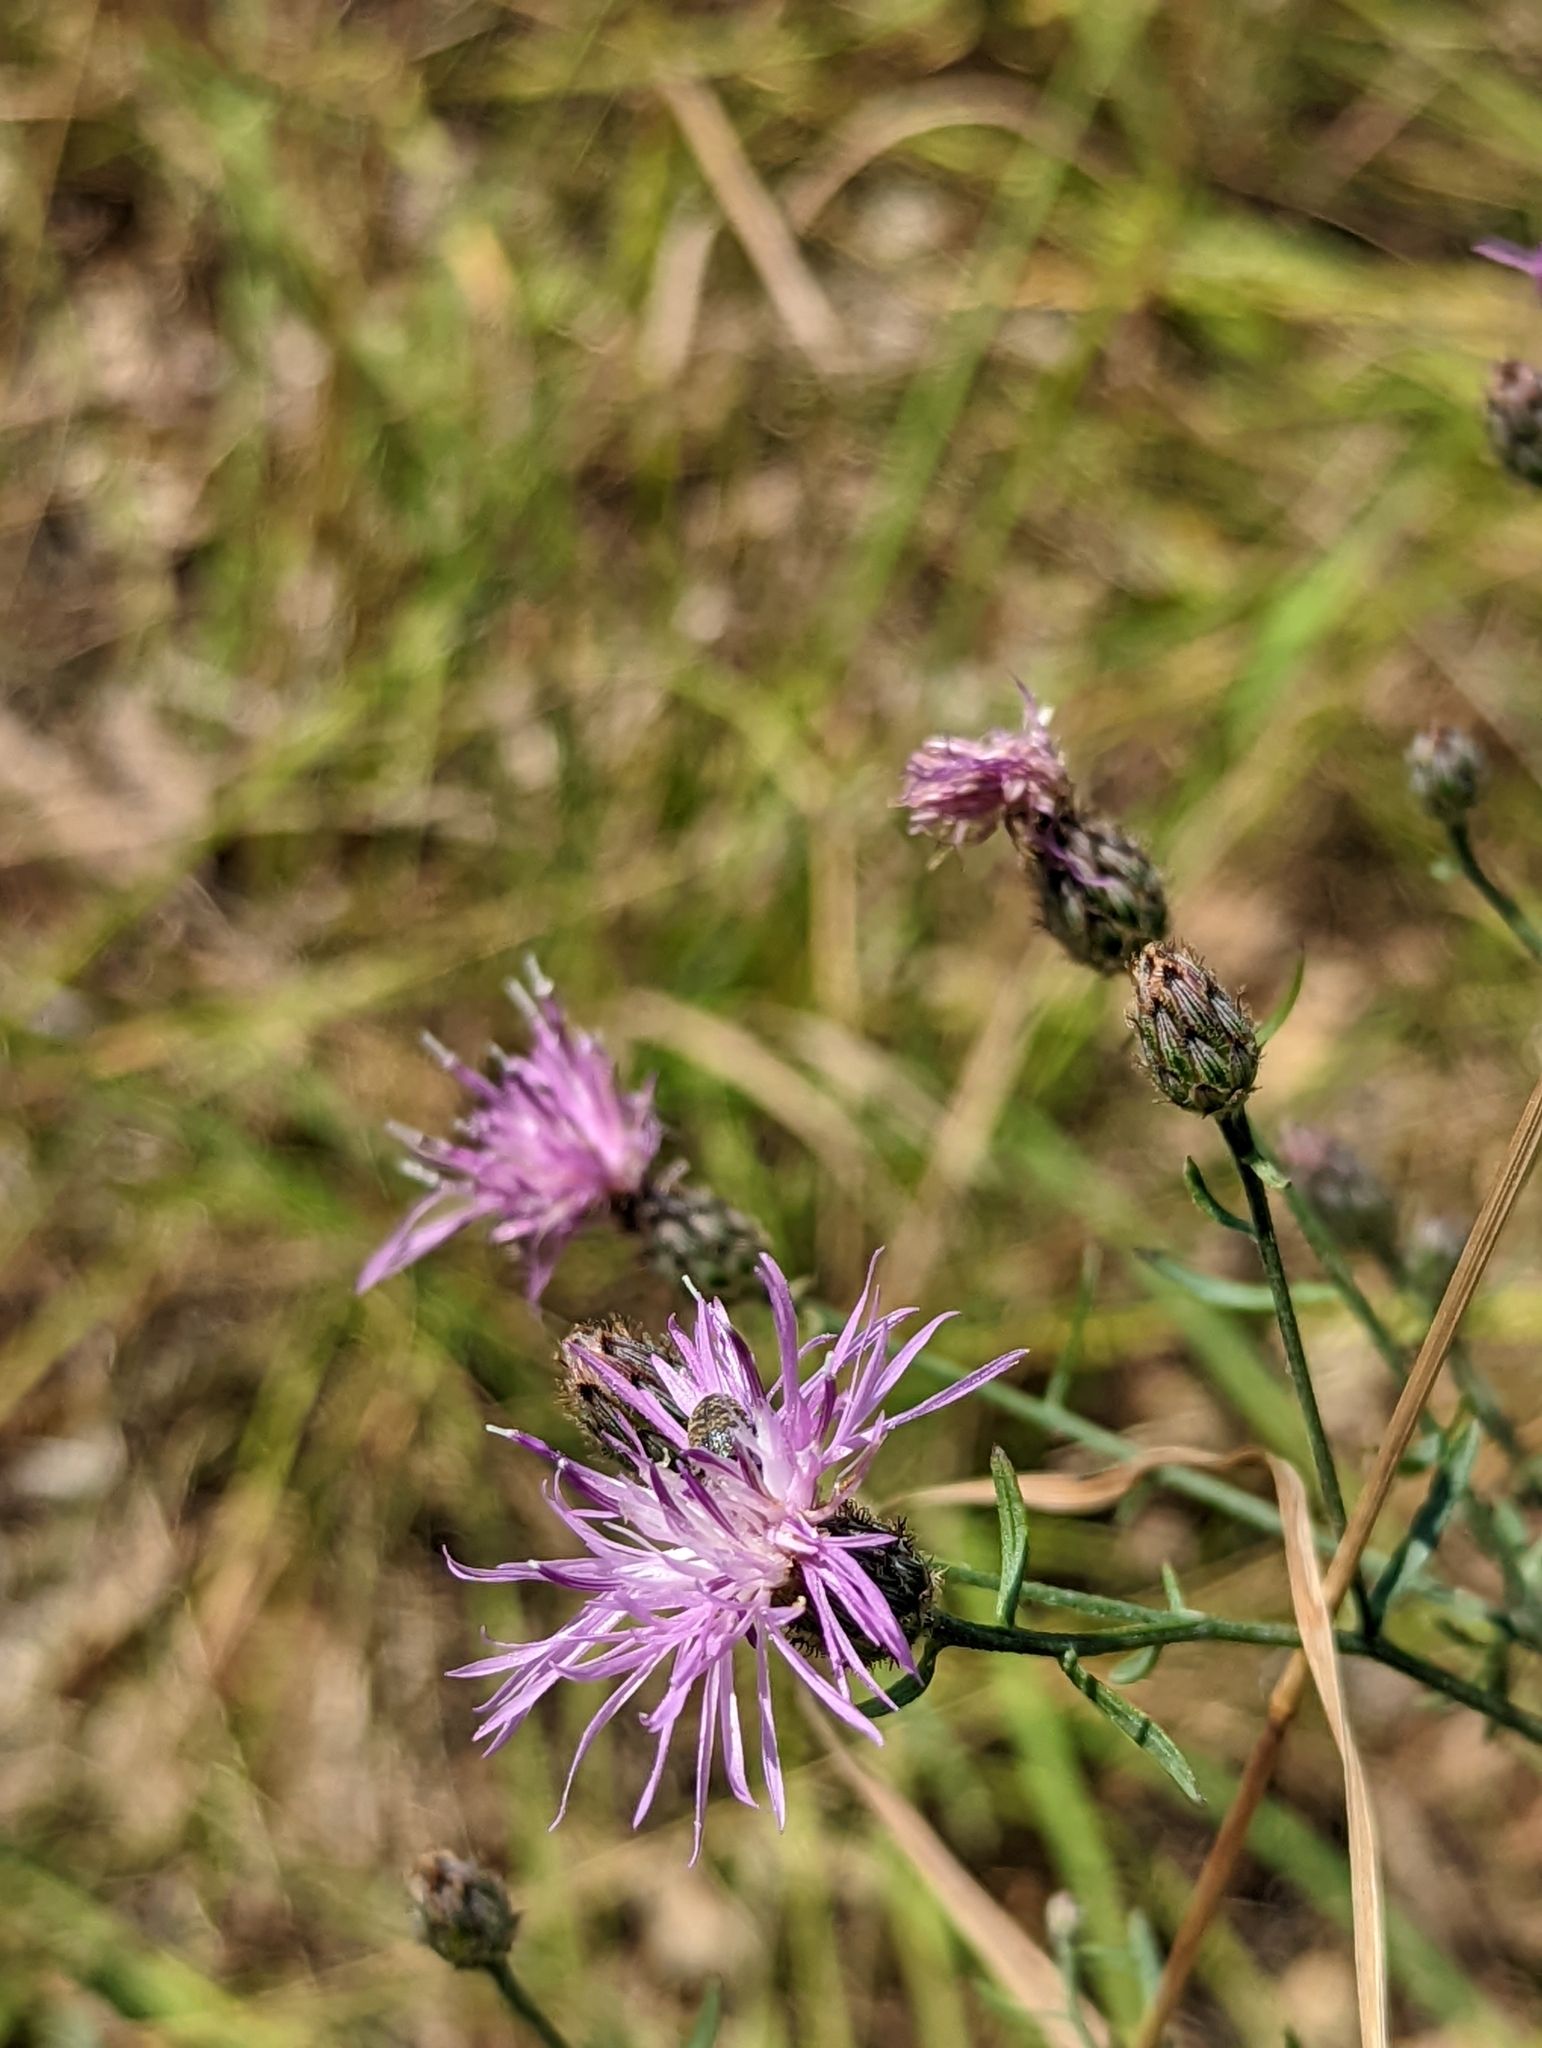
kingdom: Plantae
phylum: Tracheophyta
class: Magnoliopsida
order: Asterales
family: Asteraceae
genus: Centaurea
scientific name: Centaurea stoebe
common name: Spotted knapweed
